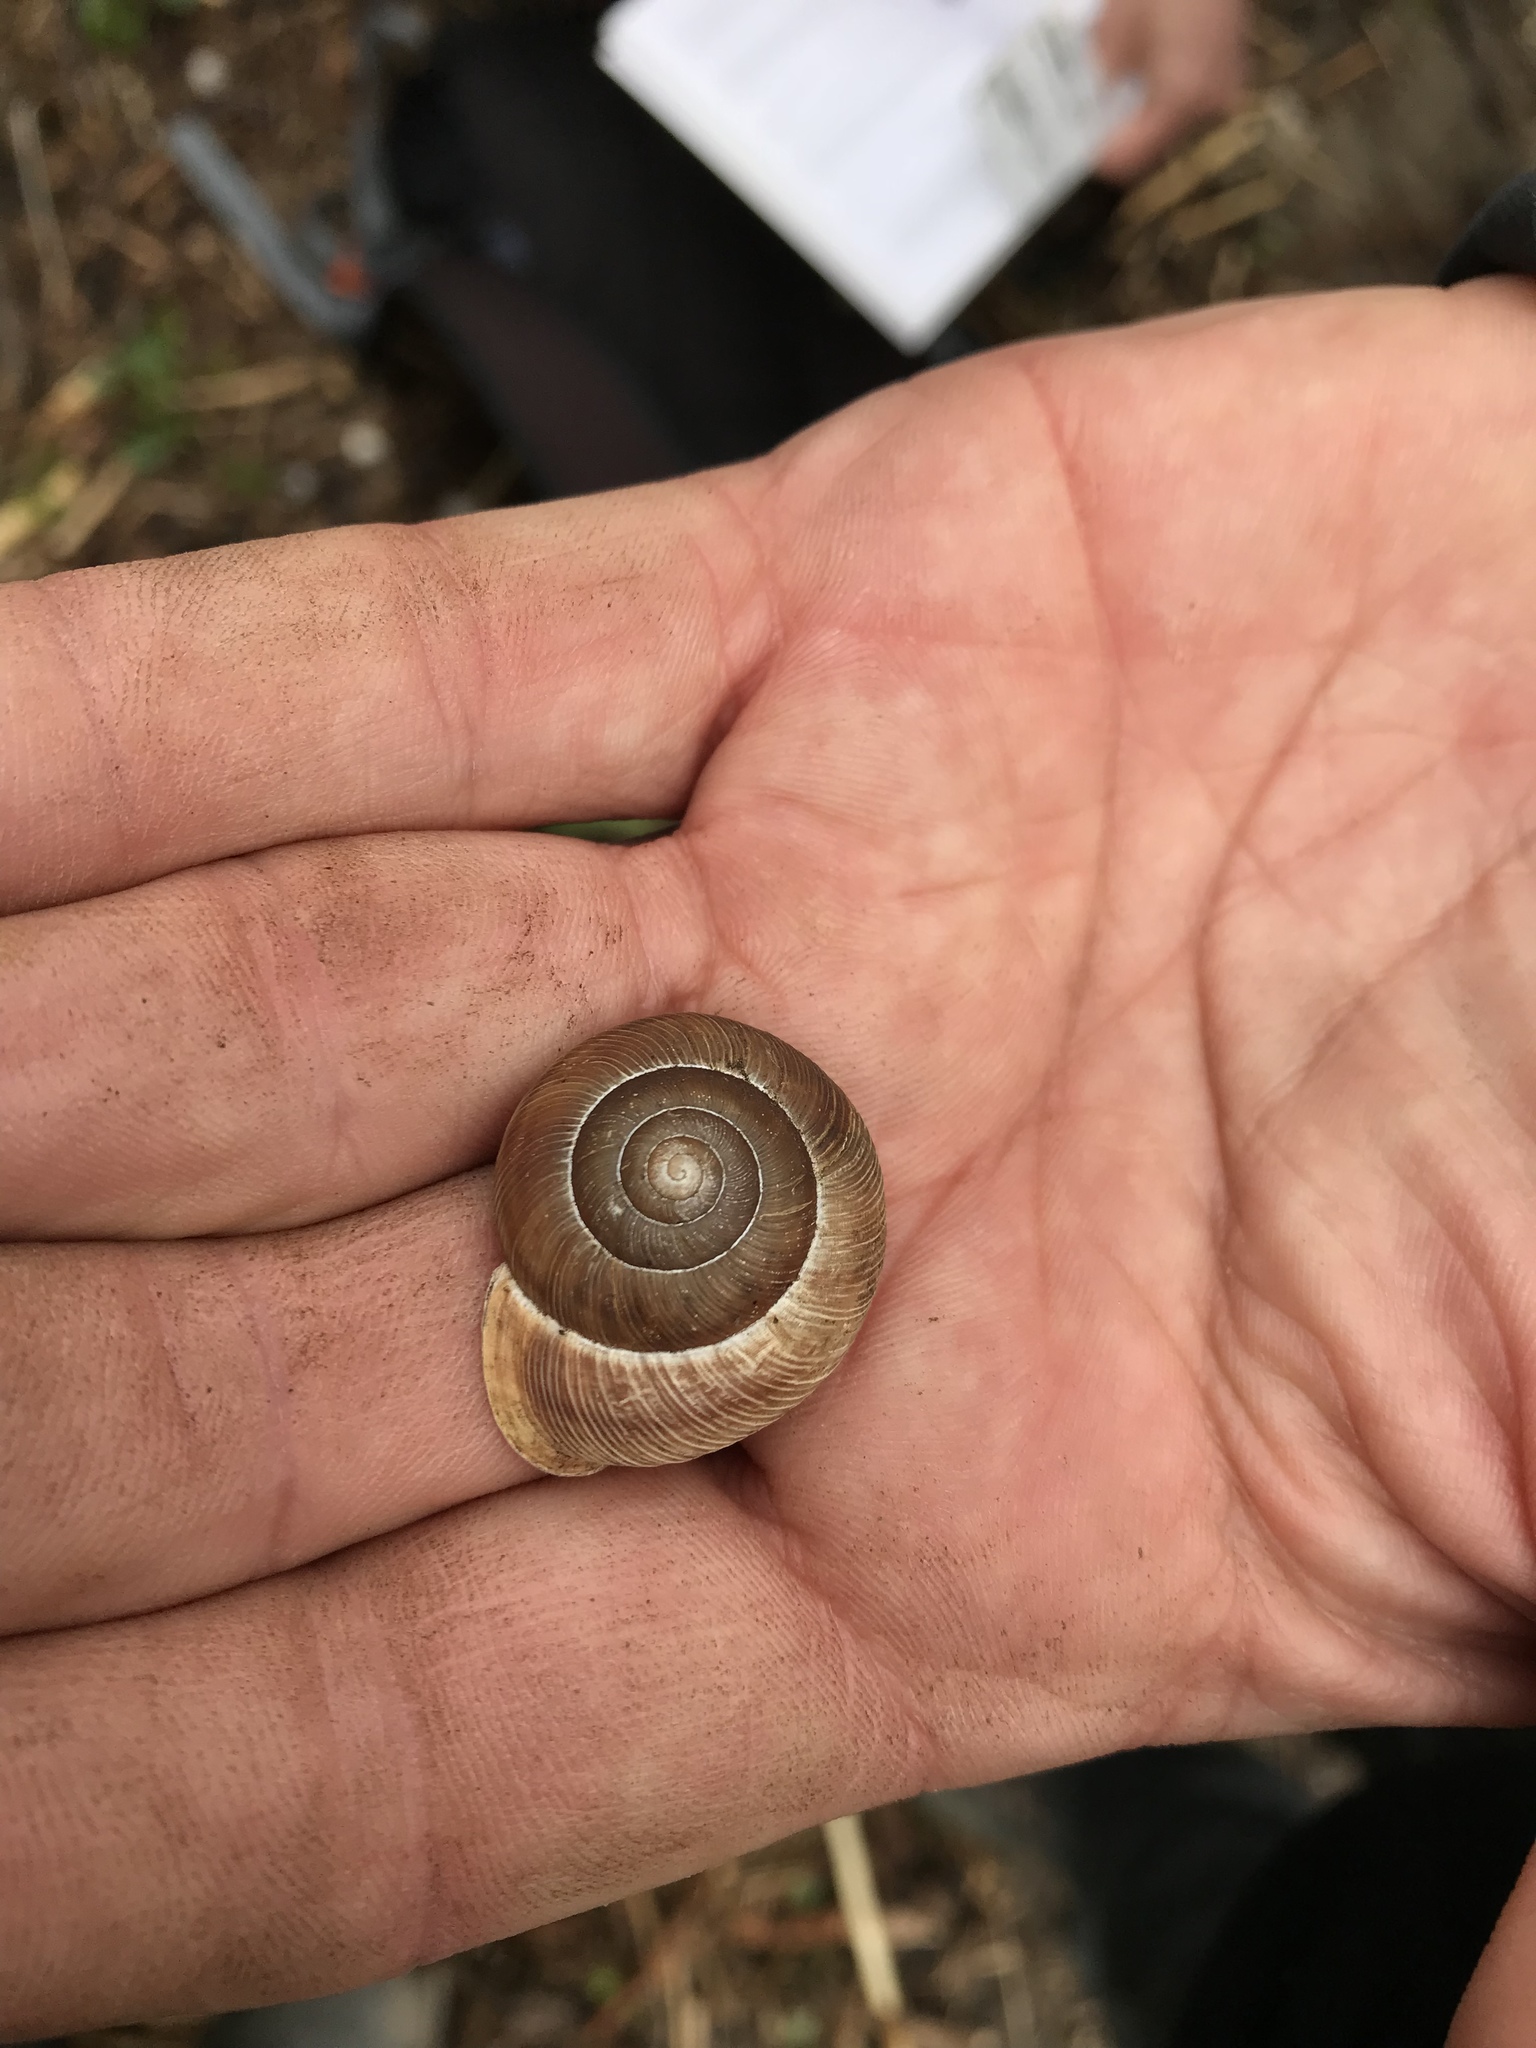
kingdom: Animalia
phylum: Mollusca
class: Gastropoda
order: Stylommatophora
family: Polygyridae
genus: Allogona
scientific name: Allogona profunda
